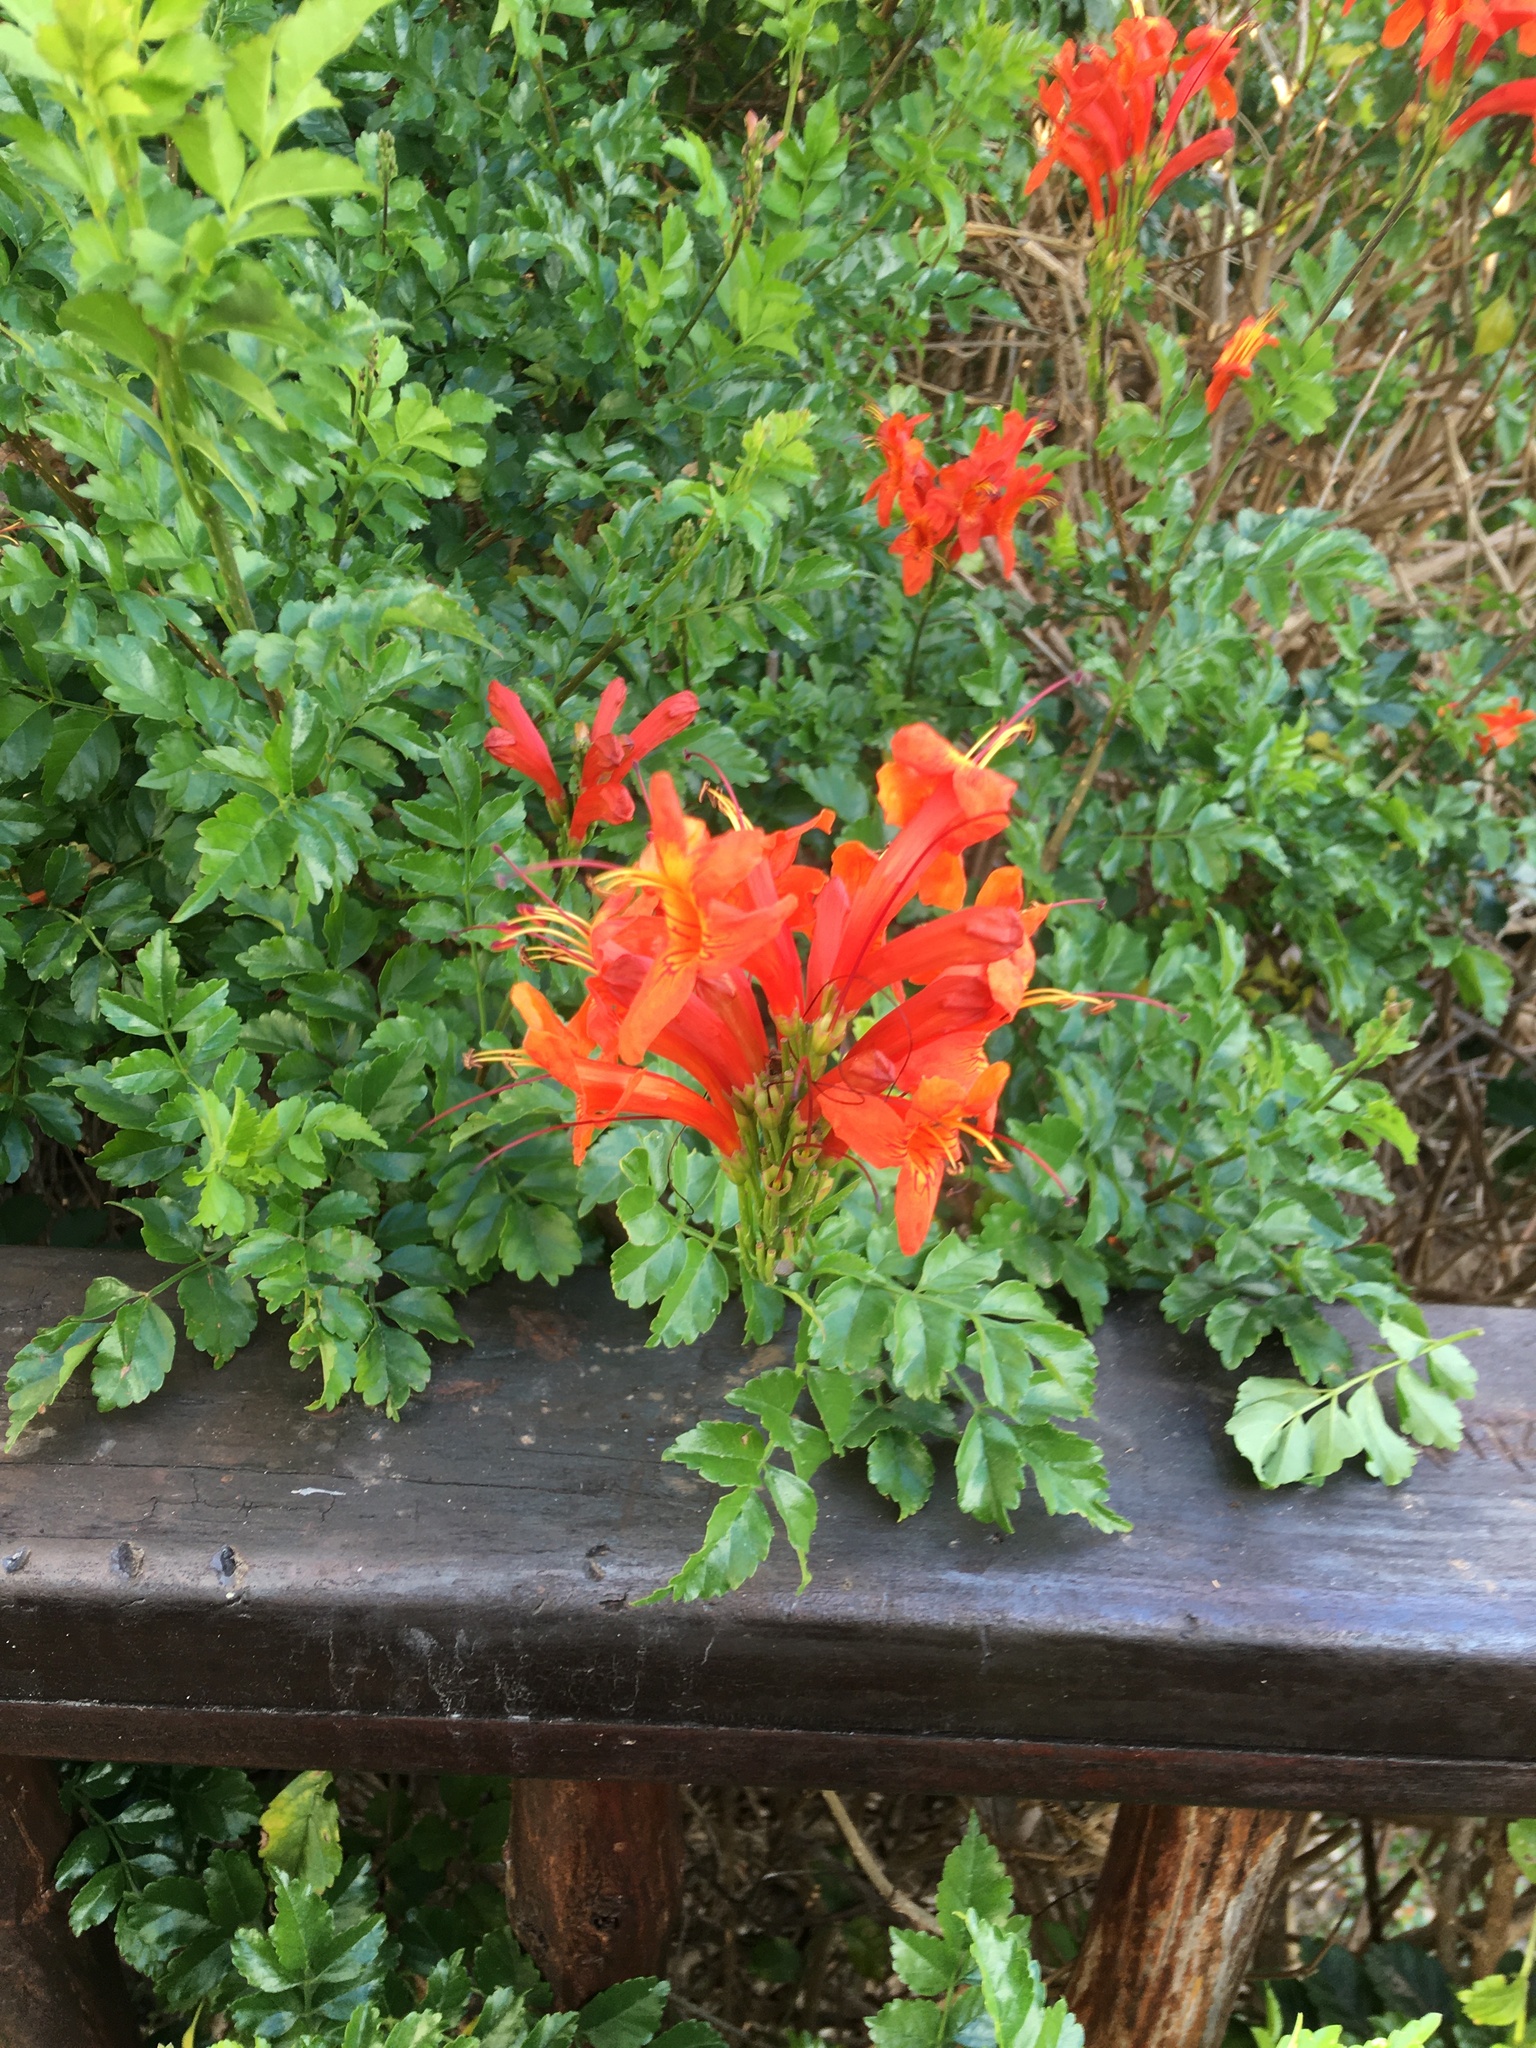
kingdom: Plantae
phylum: Tracheophyta
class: Magnoliopsida
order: Lamiales
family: Bignoniaceae
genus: Tecomaria
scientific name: Tecomaria capensis
